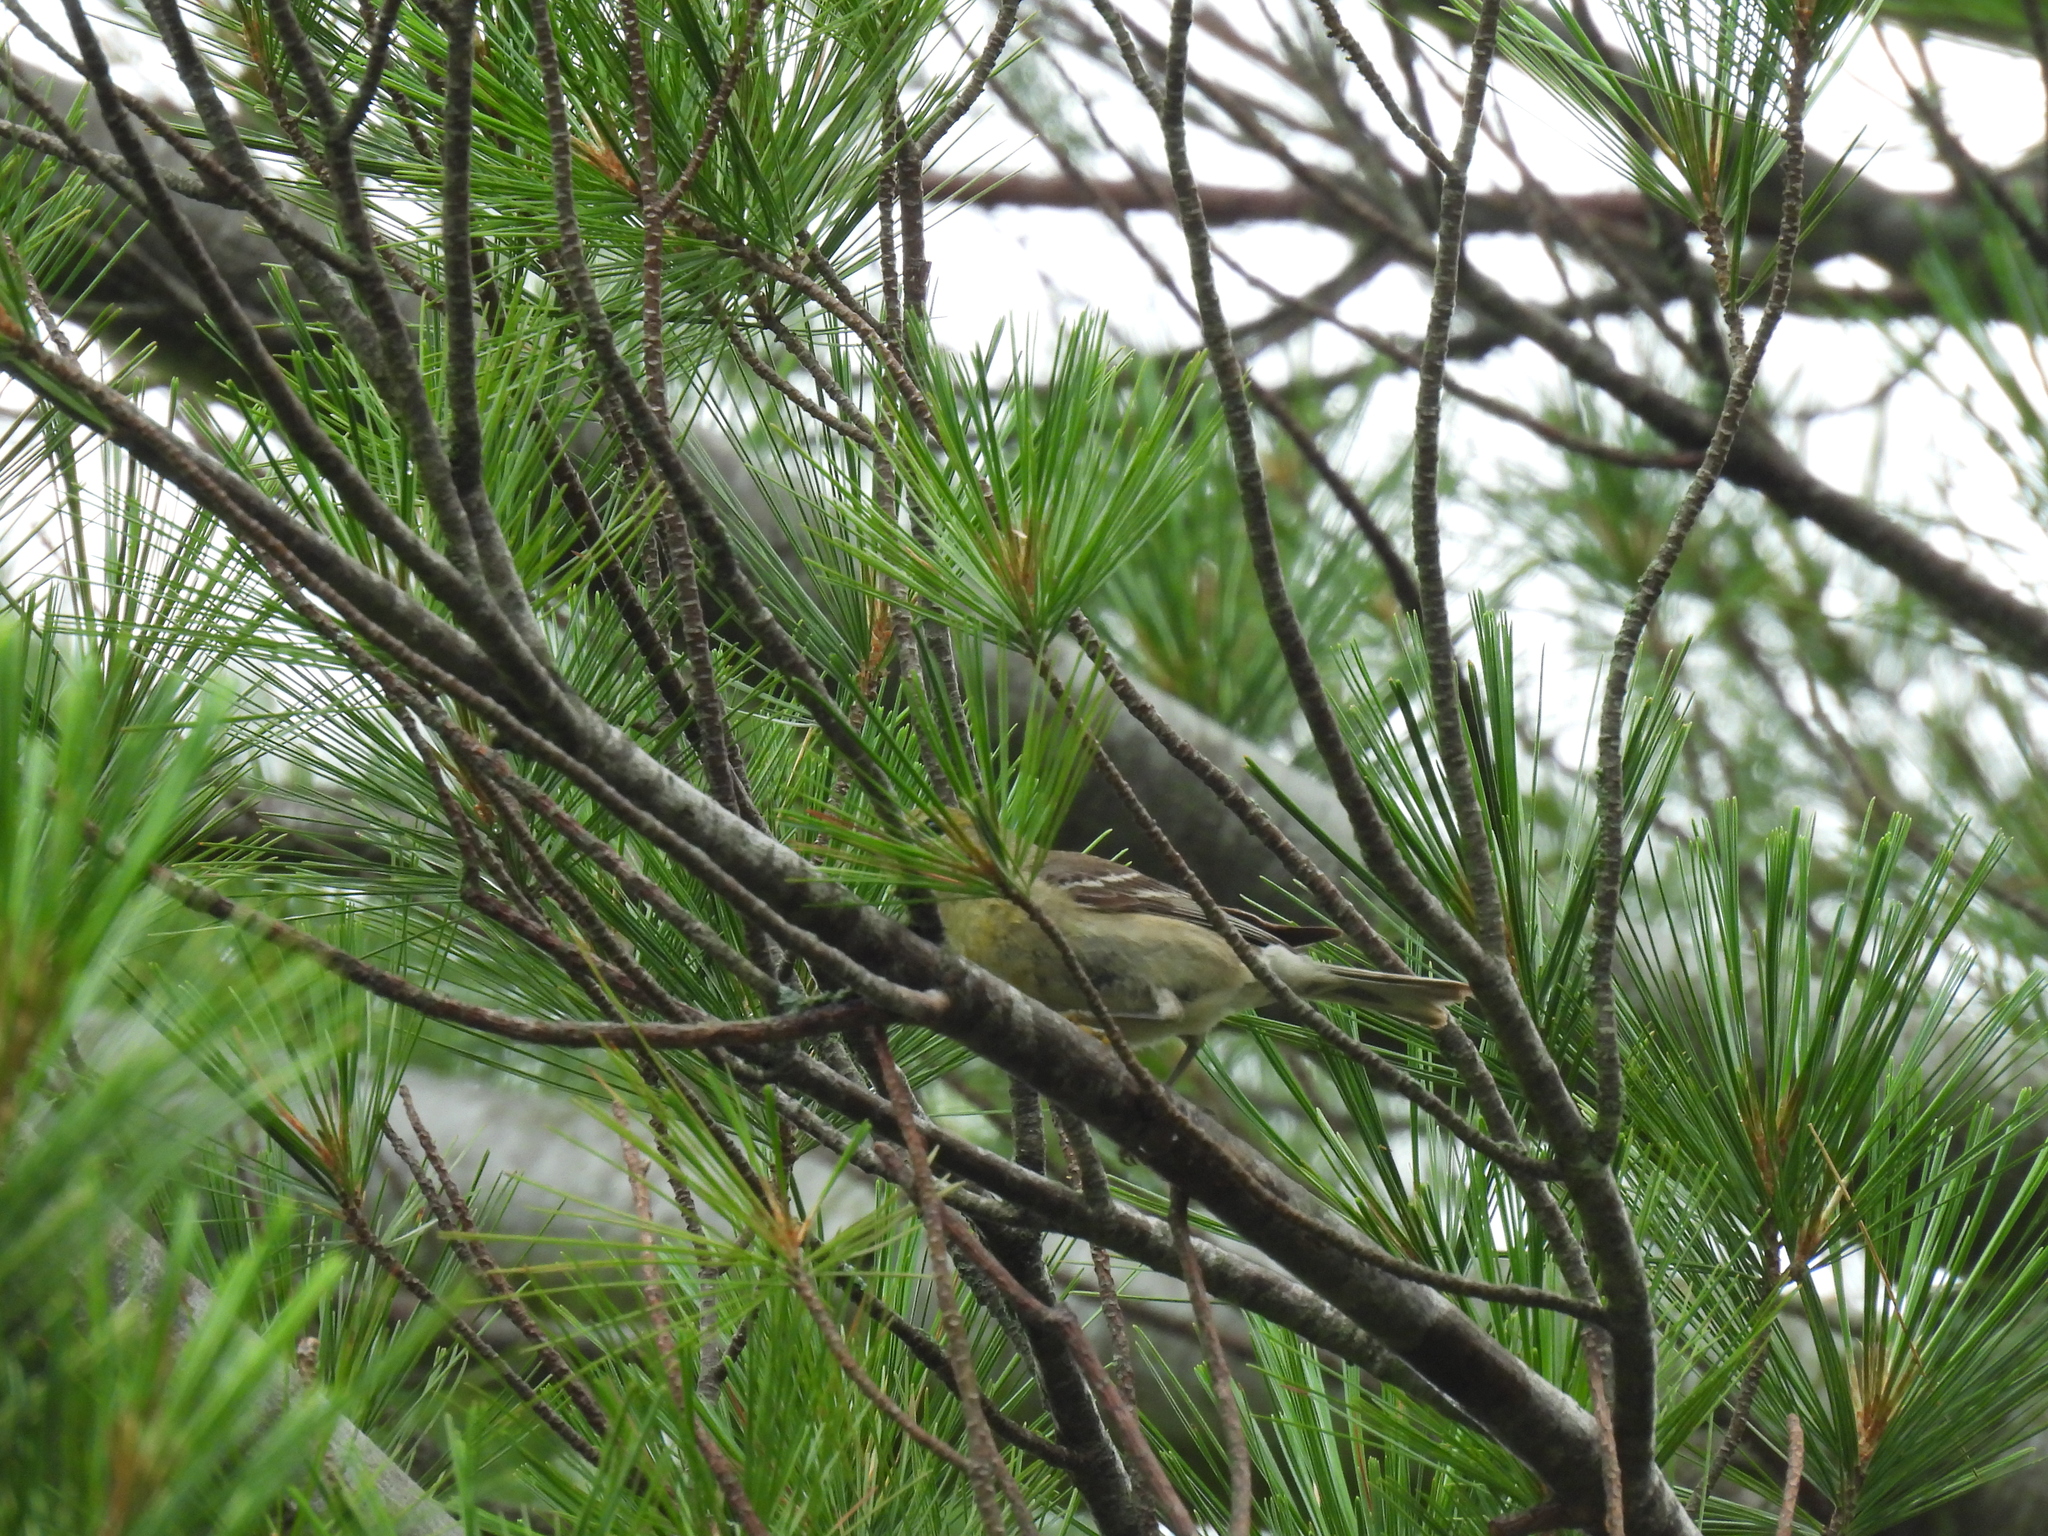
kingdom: Animalia
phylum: Chordata
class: Aves
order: Passeriformes
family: Parulidae
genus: Setophaga
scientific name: Setophaga pinus
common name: Pine warbler
